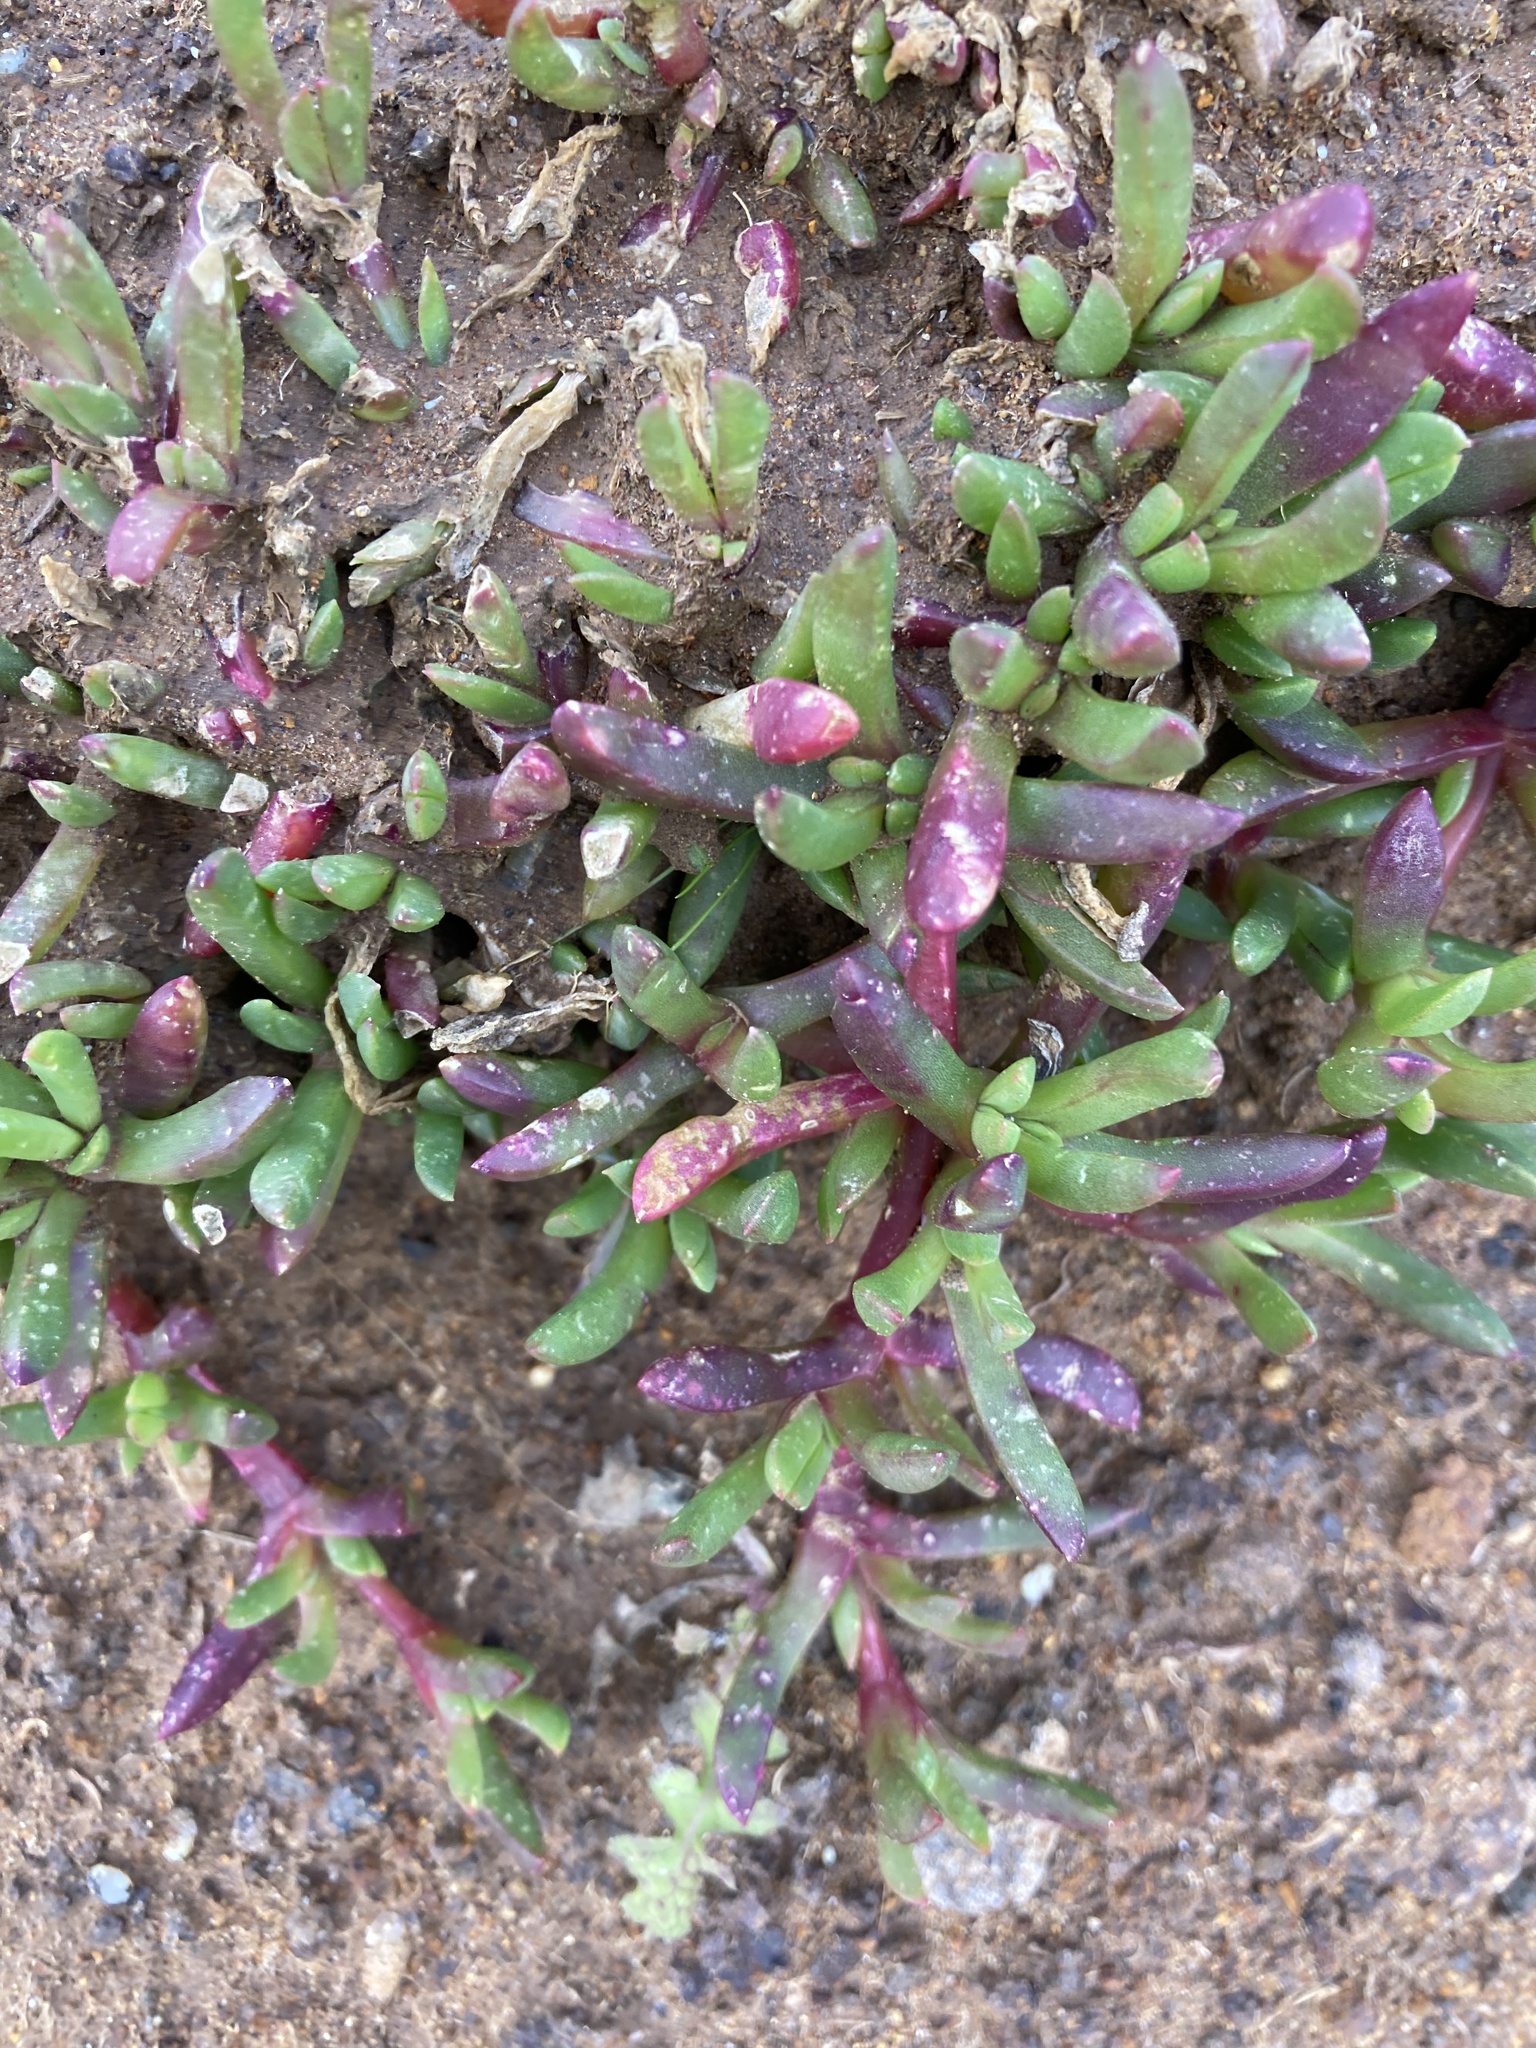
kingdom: Plantae
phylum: Tracheophyta
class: Magnoliopsida
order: Caryophyllales
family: Aizoaceae
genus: Disphyma
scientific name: Disphyma australe
